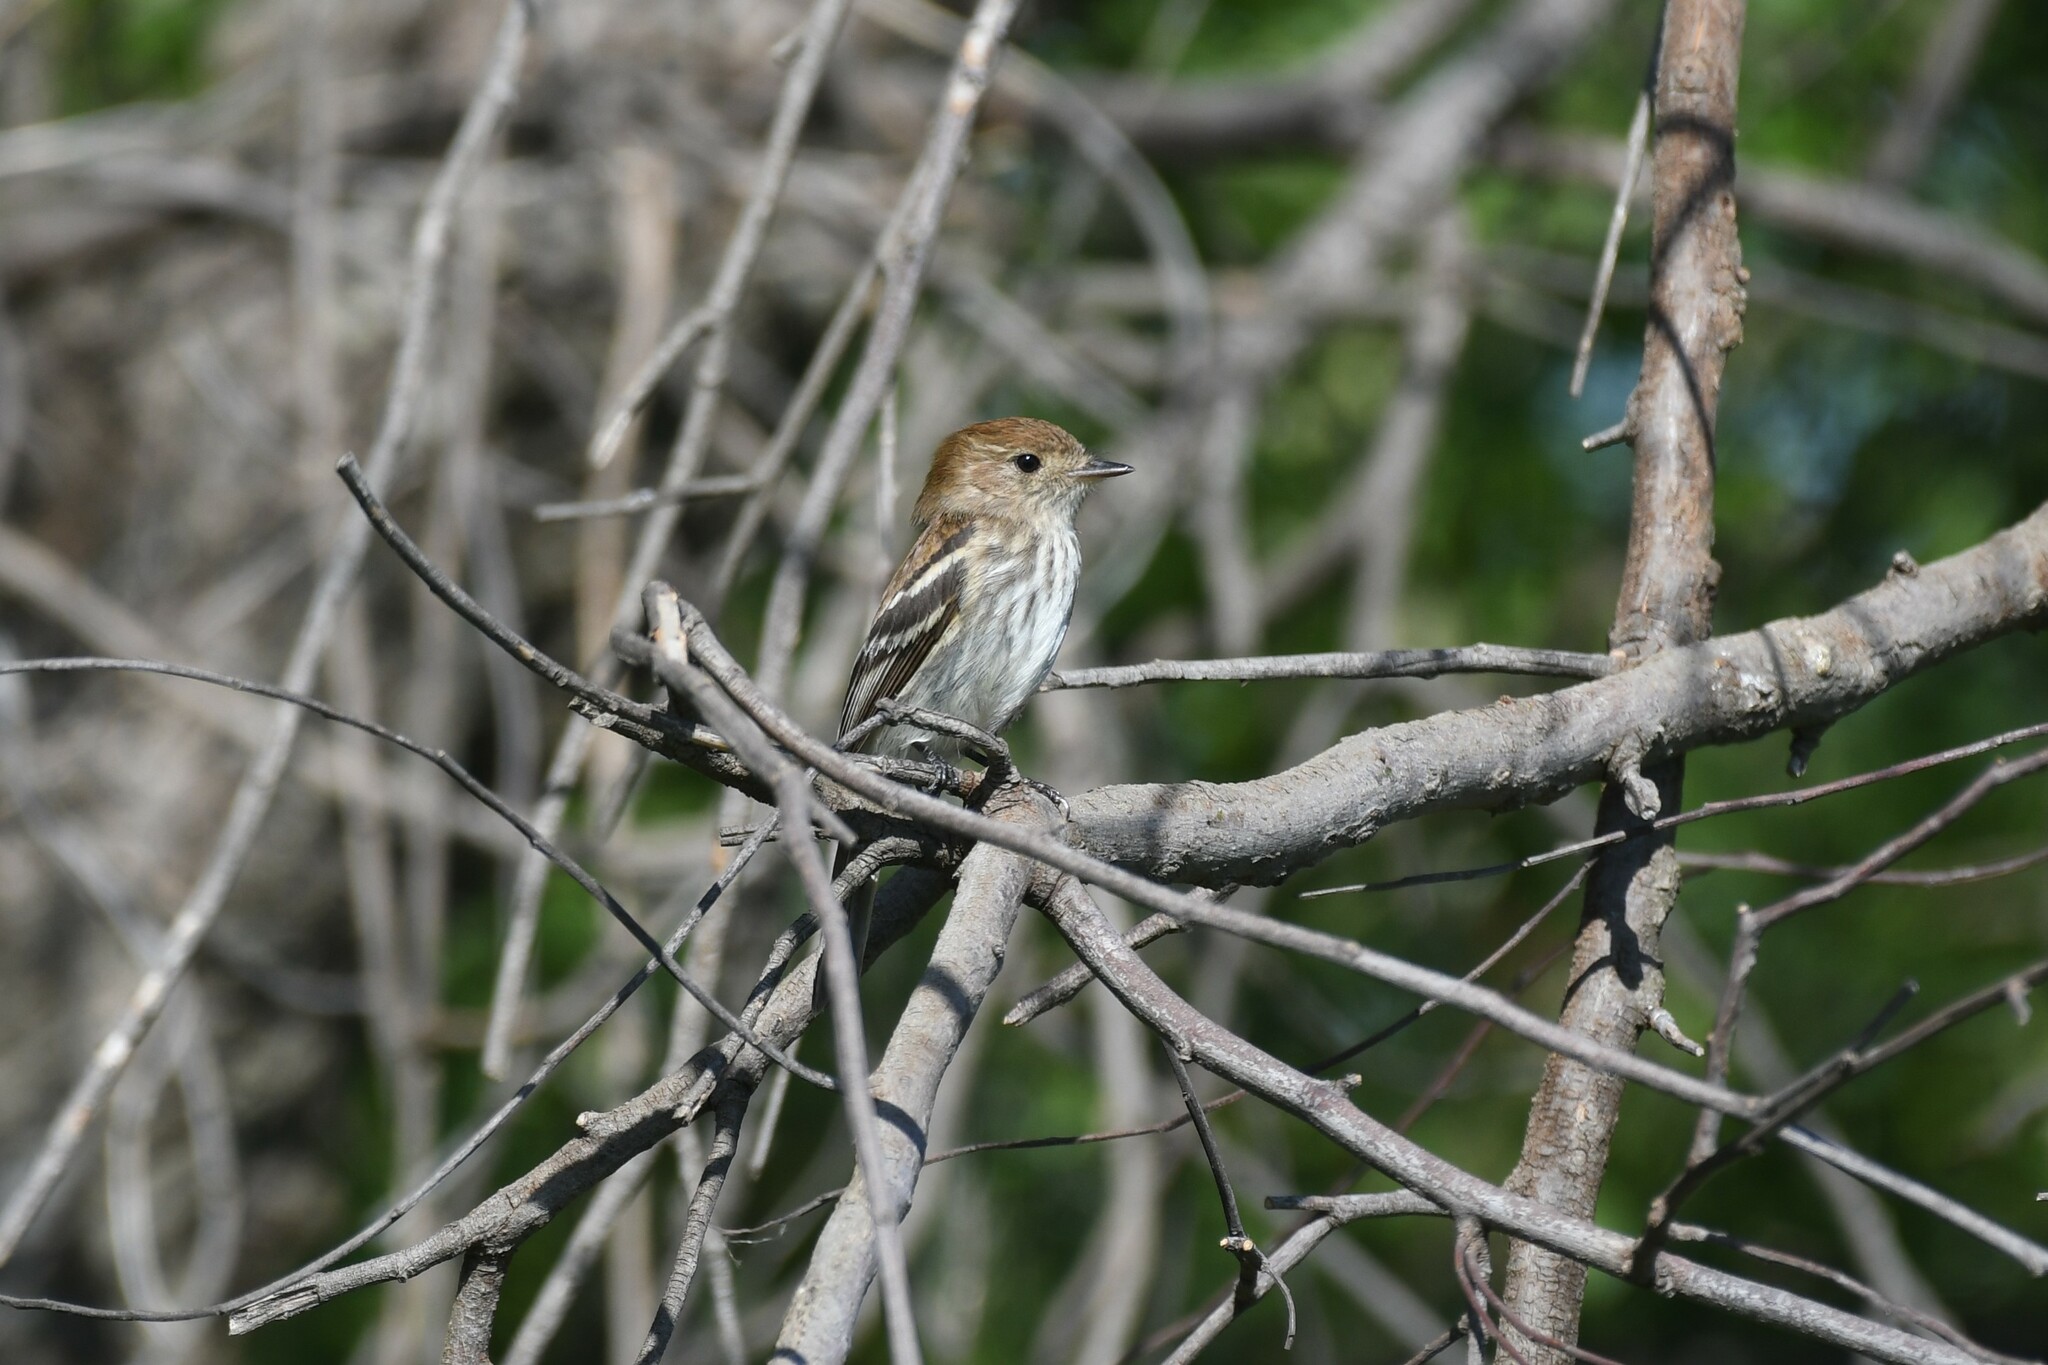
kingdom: Animalia
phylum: Chordata
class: Aves
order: Passeriformes
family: Tyrannidae
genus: Myiophobus
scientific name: Myiophobus fasciatus
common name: Bran-colored flycatcher
